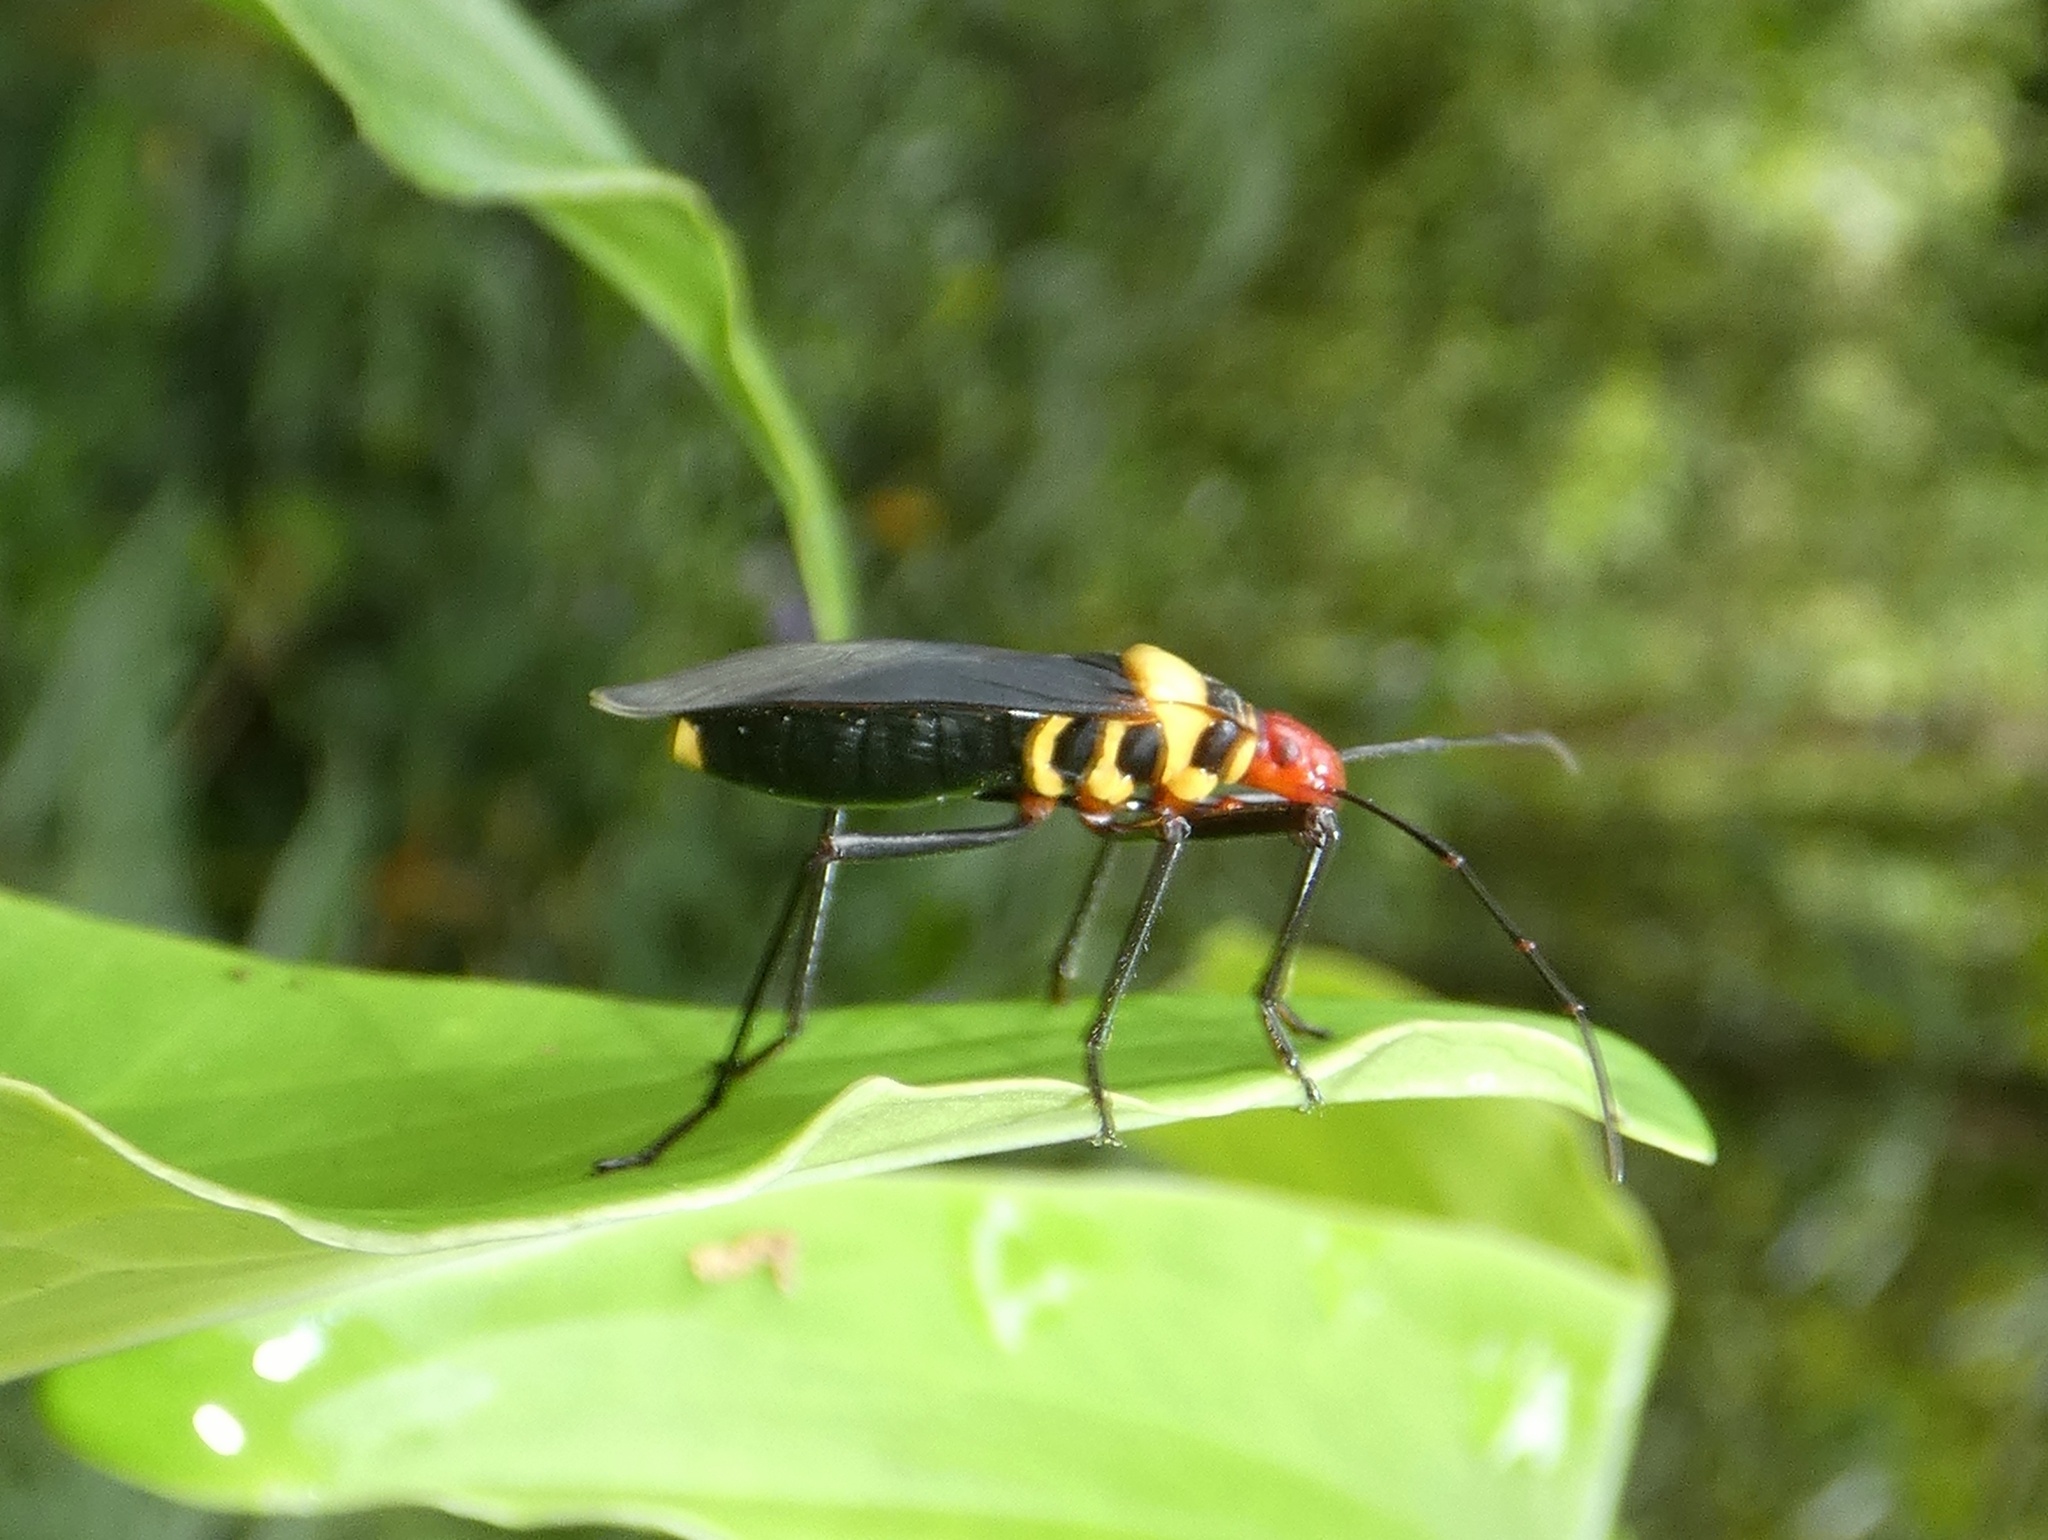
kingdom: Animalia
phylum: Arthropoda
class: Insecta
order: Hemiptera
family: Pyrrhocoridae
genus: Dysdercus
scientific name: Dysdercus
